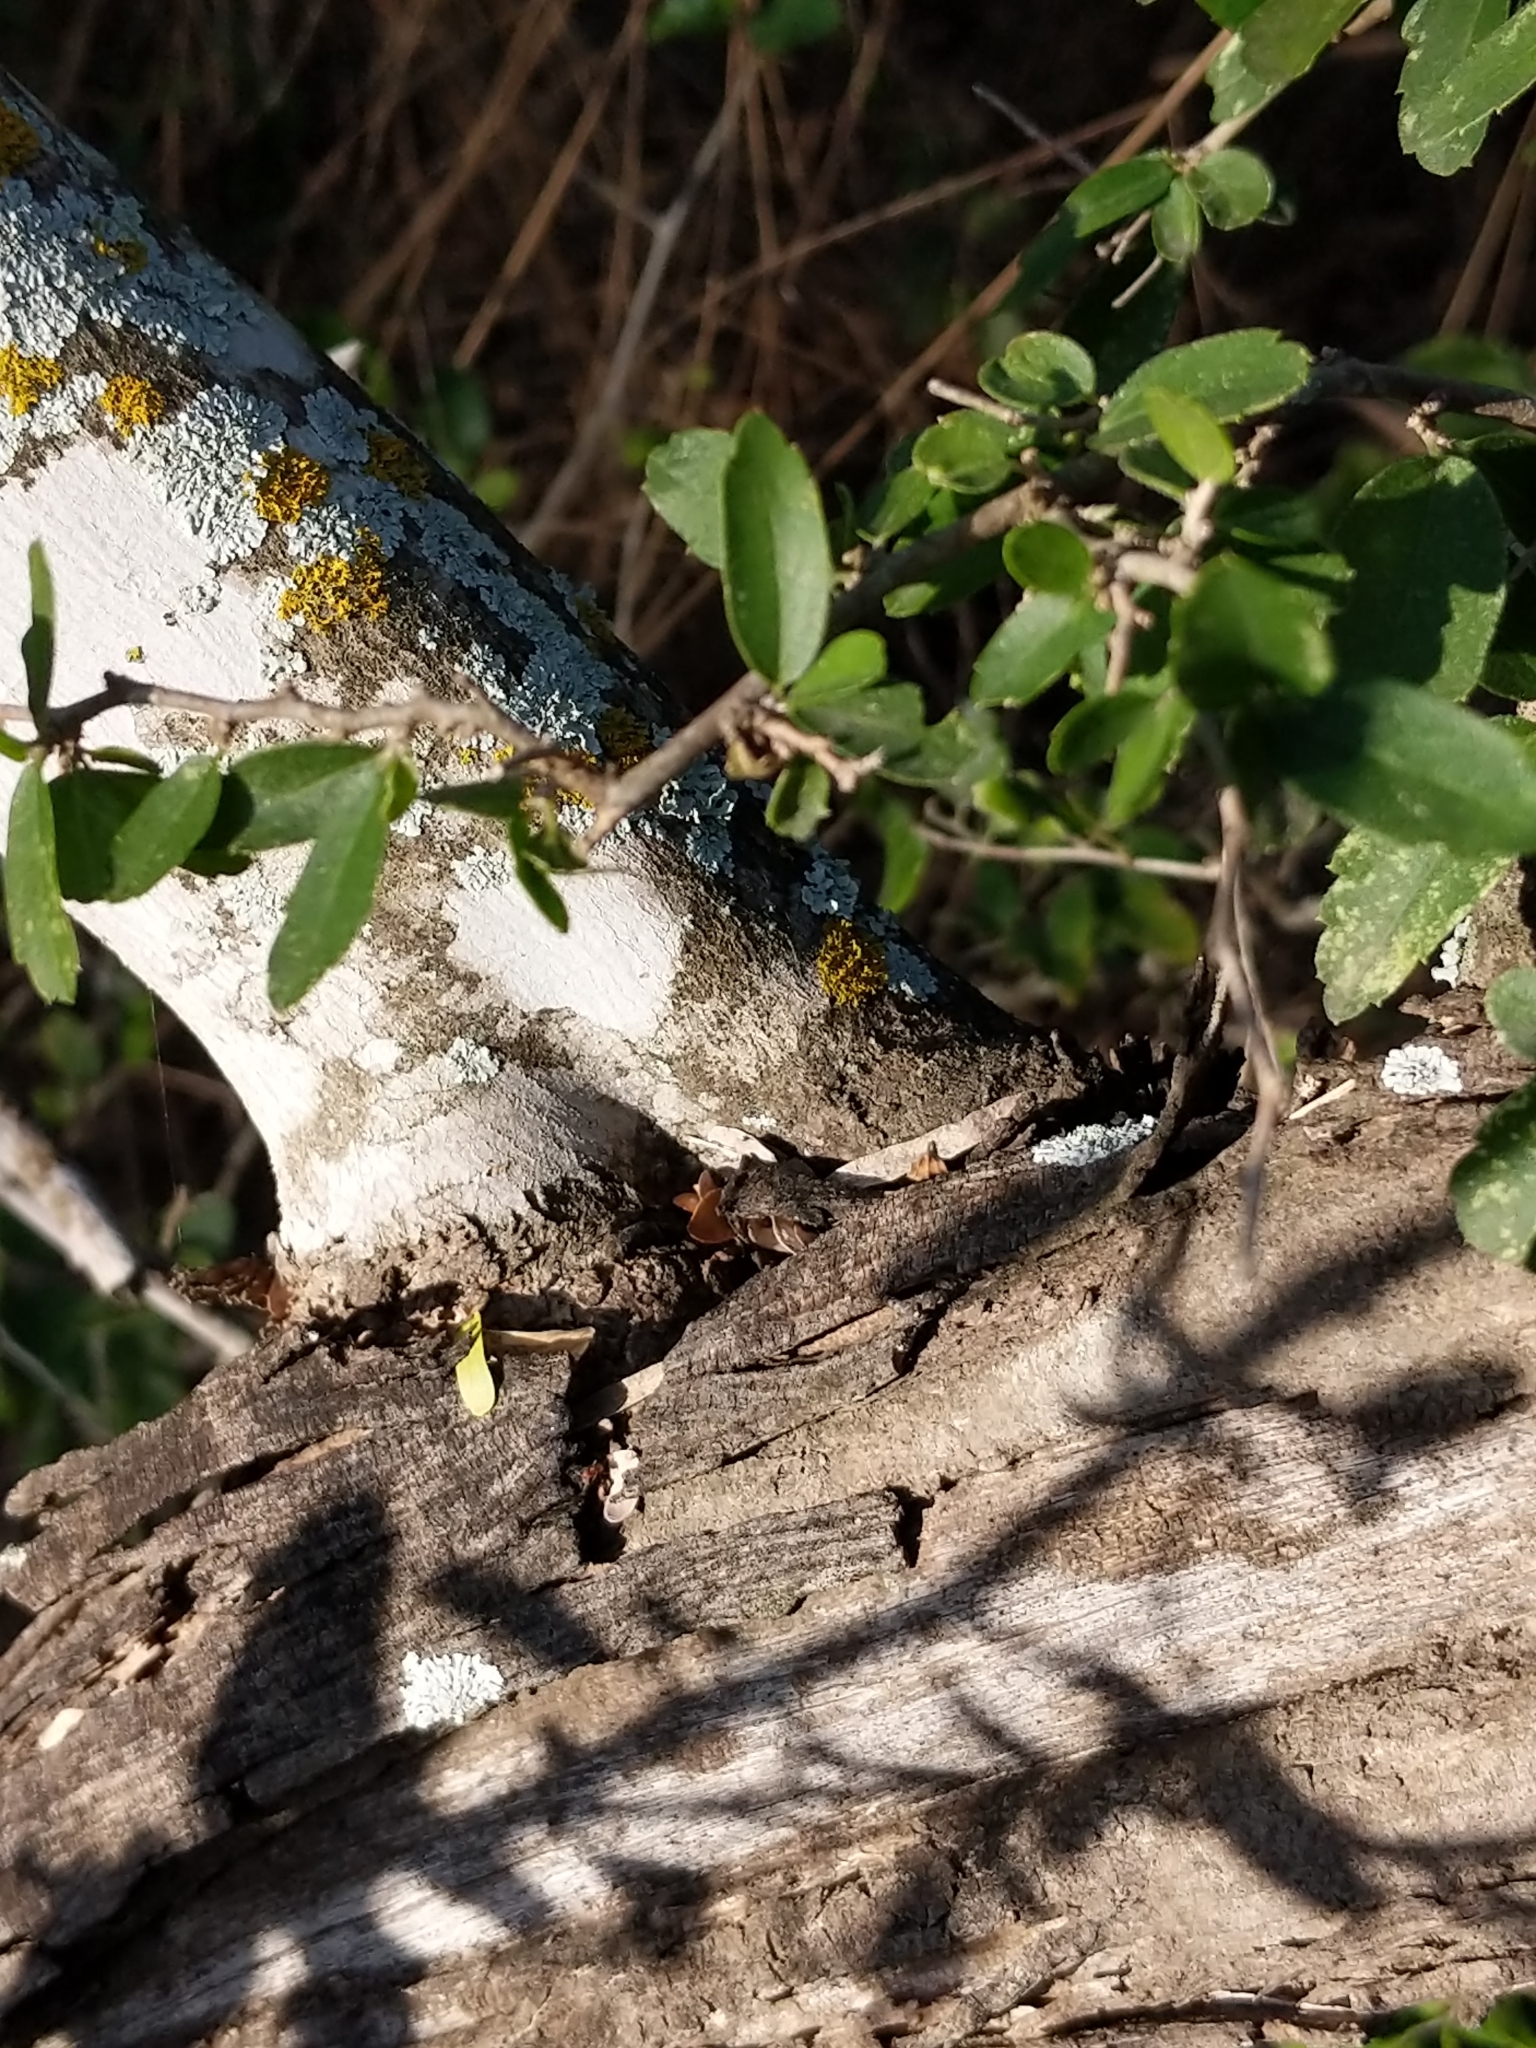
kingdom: Plantae
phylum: Tracheophyta
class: Magnoliopsida
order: Rosales
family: Cannabaceae
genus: Celtis
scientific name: Celtis pallida
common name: Desert hackberry
